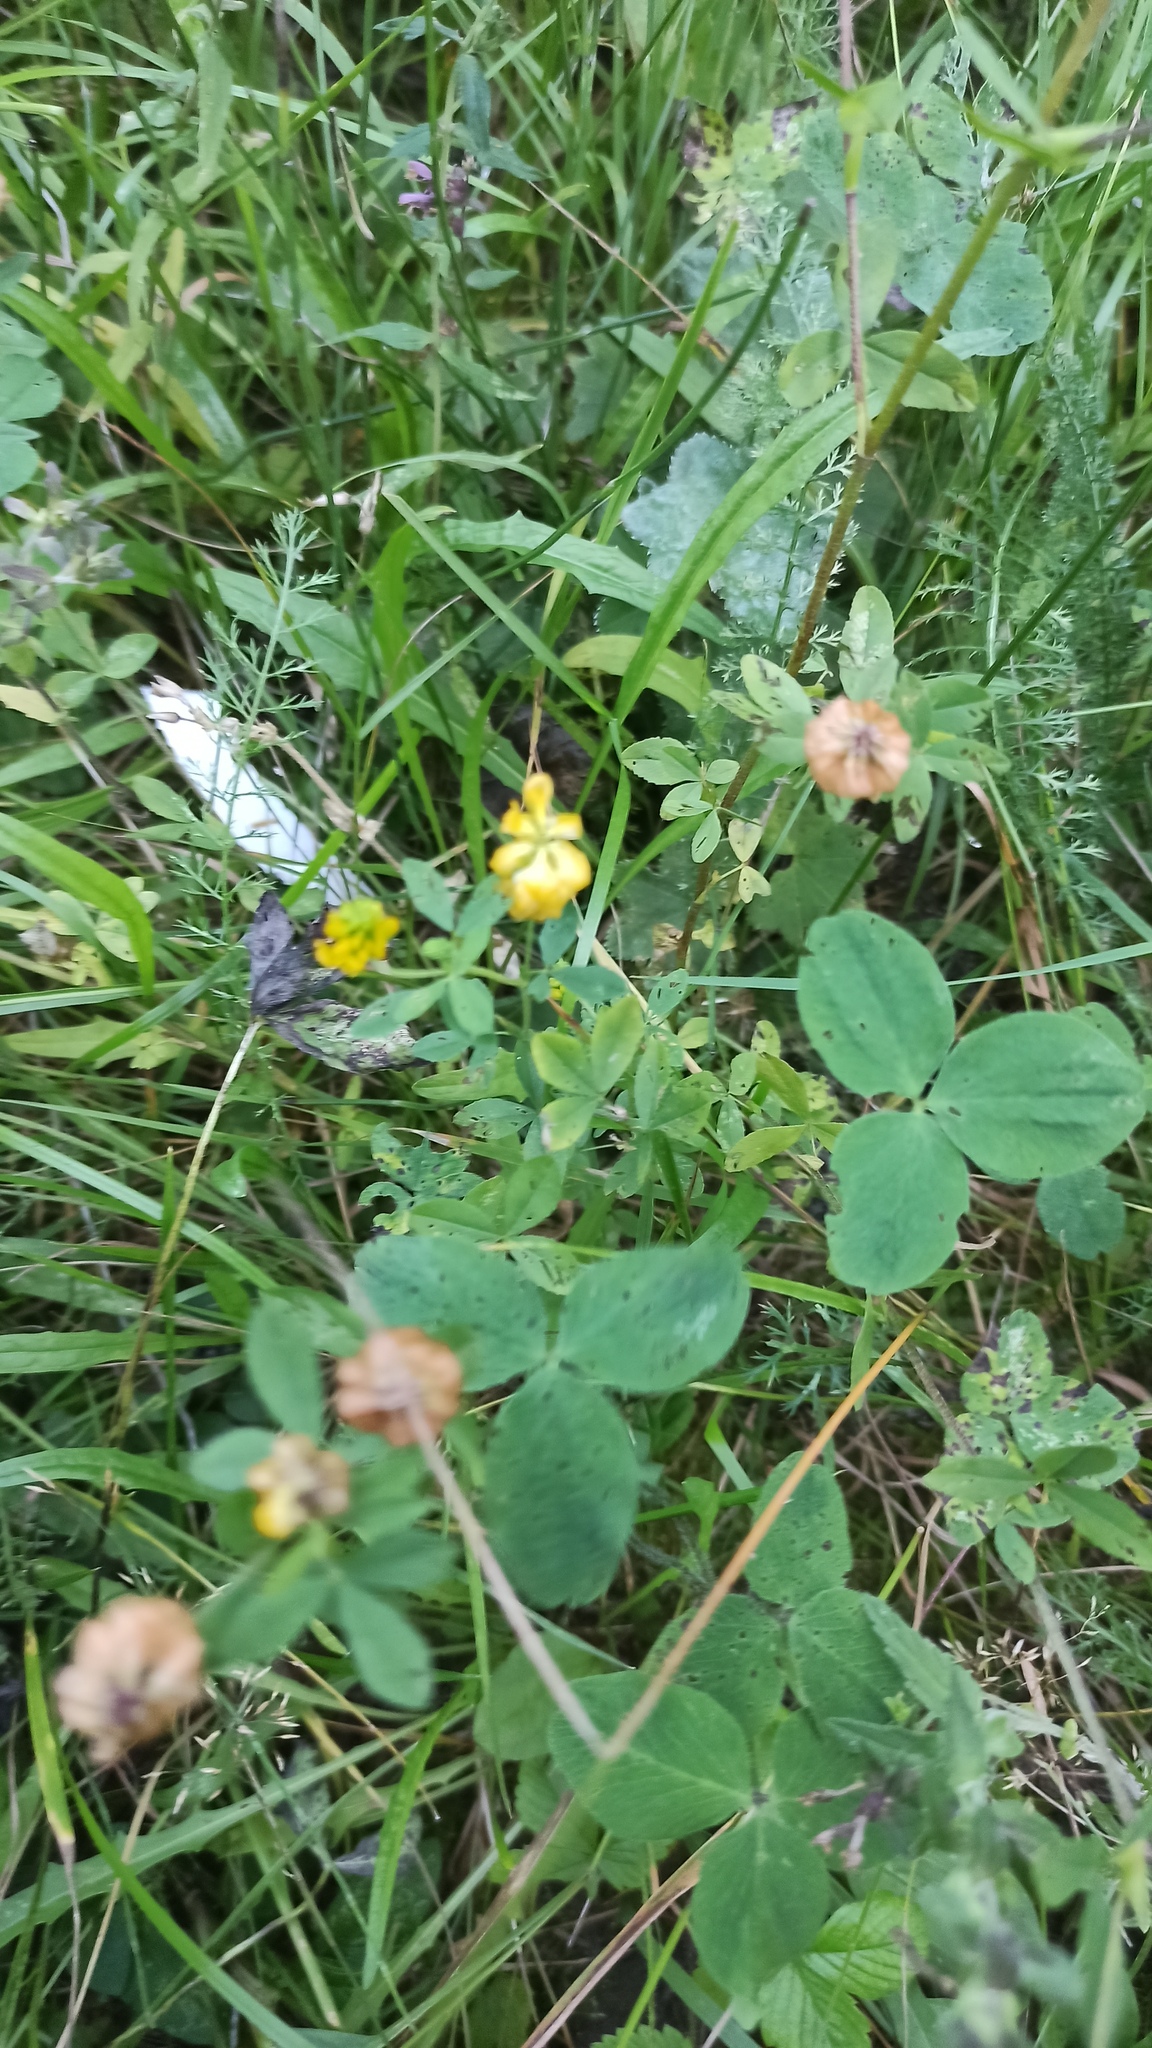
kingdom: Plantae
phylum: Tracheophyta
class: Magnoliopsida
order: Fabales
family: Fabaceae
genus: Trifolium
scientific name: Trifolium aureum
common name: Golden clover
